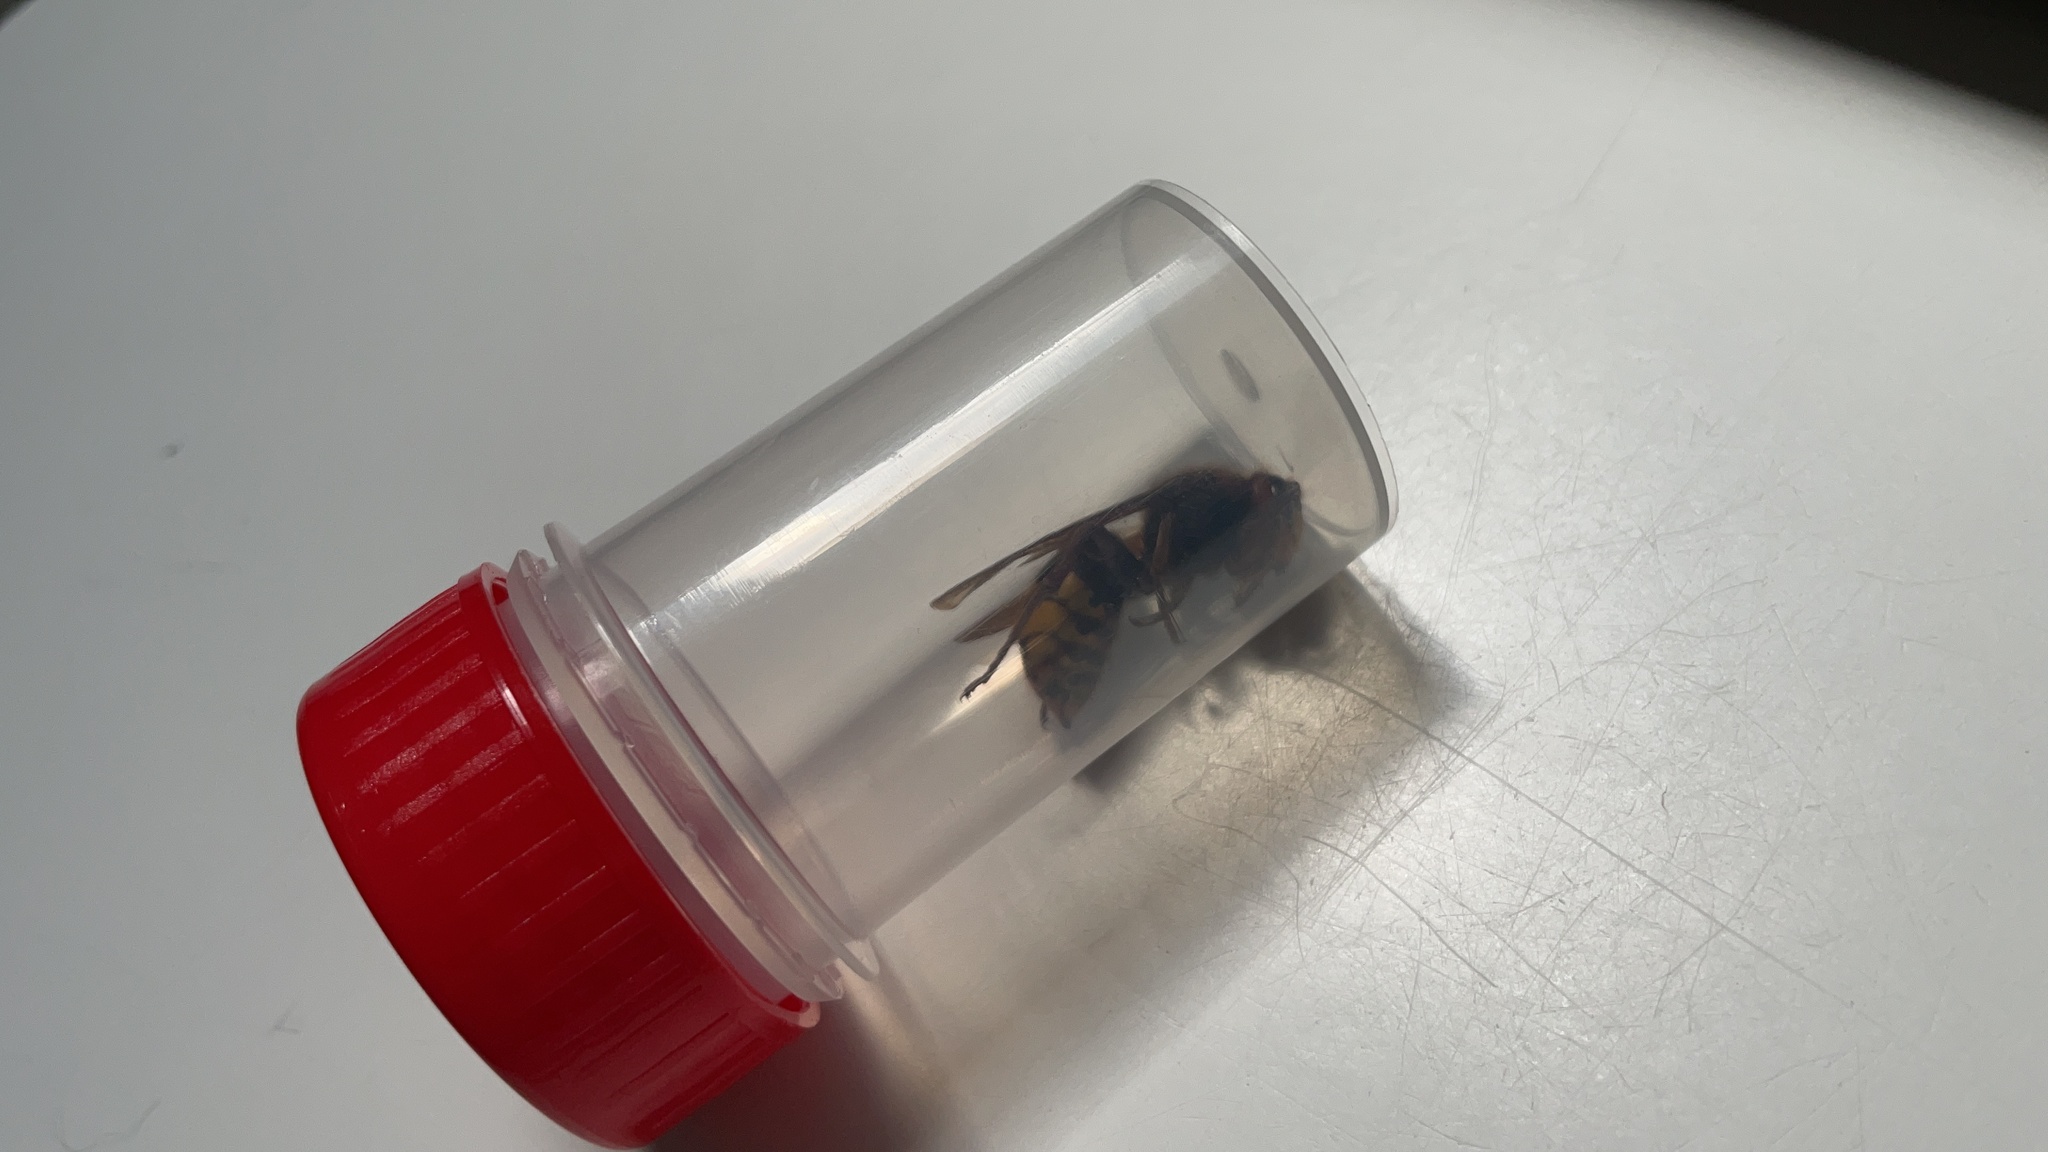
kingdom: Animalia
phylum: Arthropoda
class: Insecta
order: Hymenoptera
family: Vespidae
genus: Vespa
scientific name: Vespa crabro
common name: Hornet
